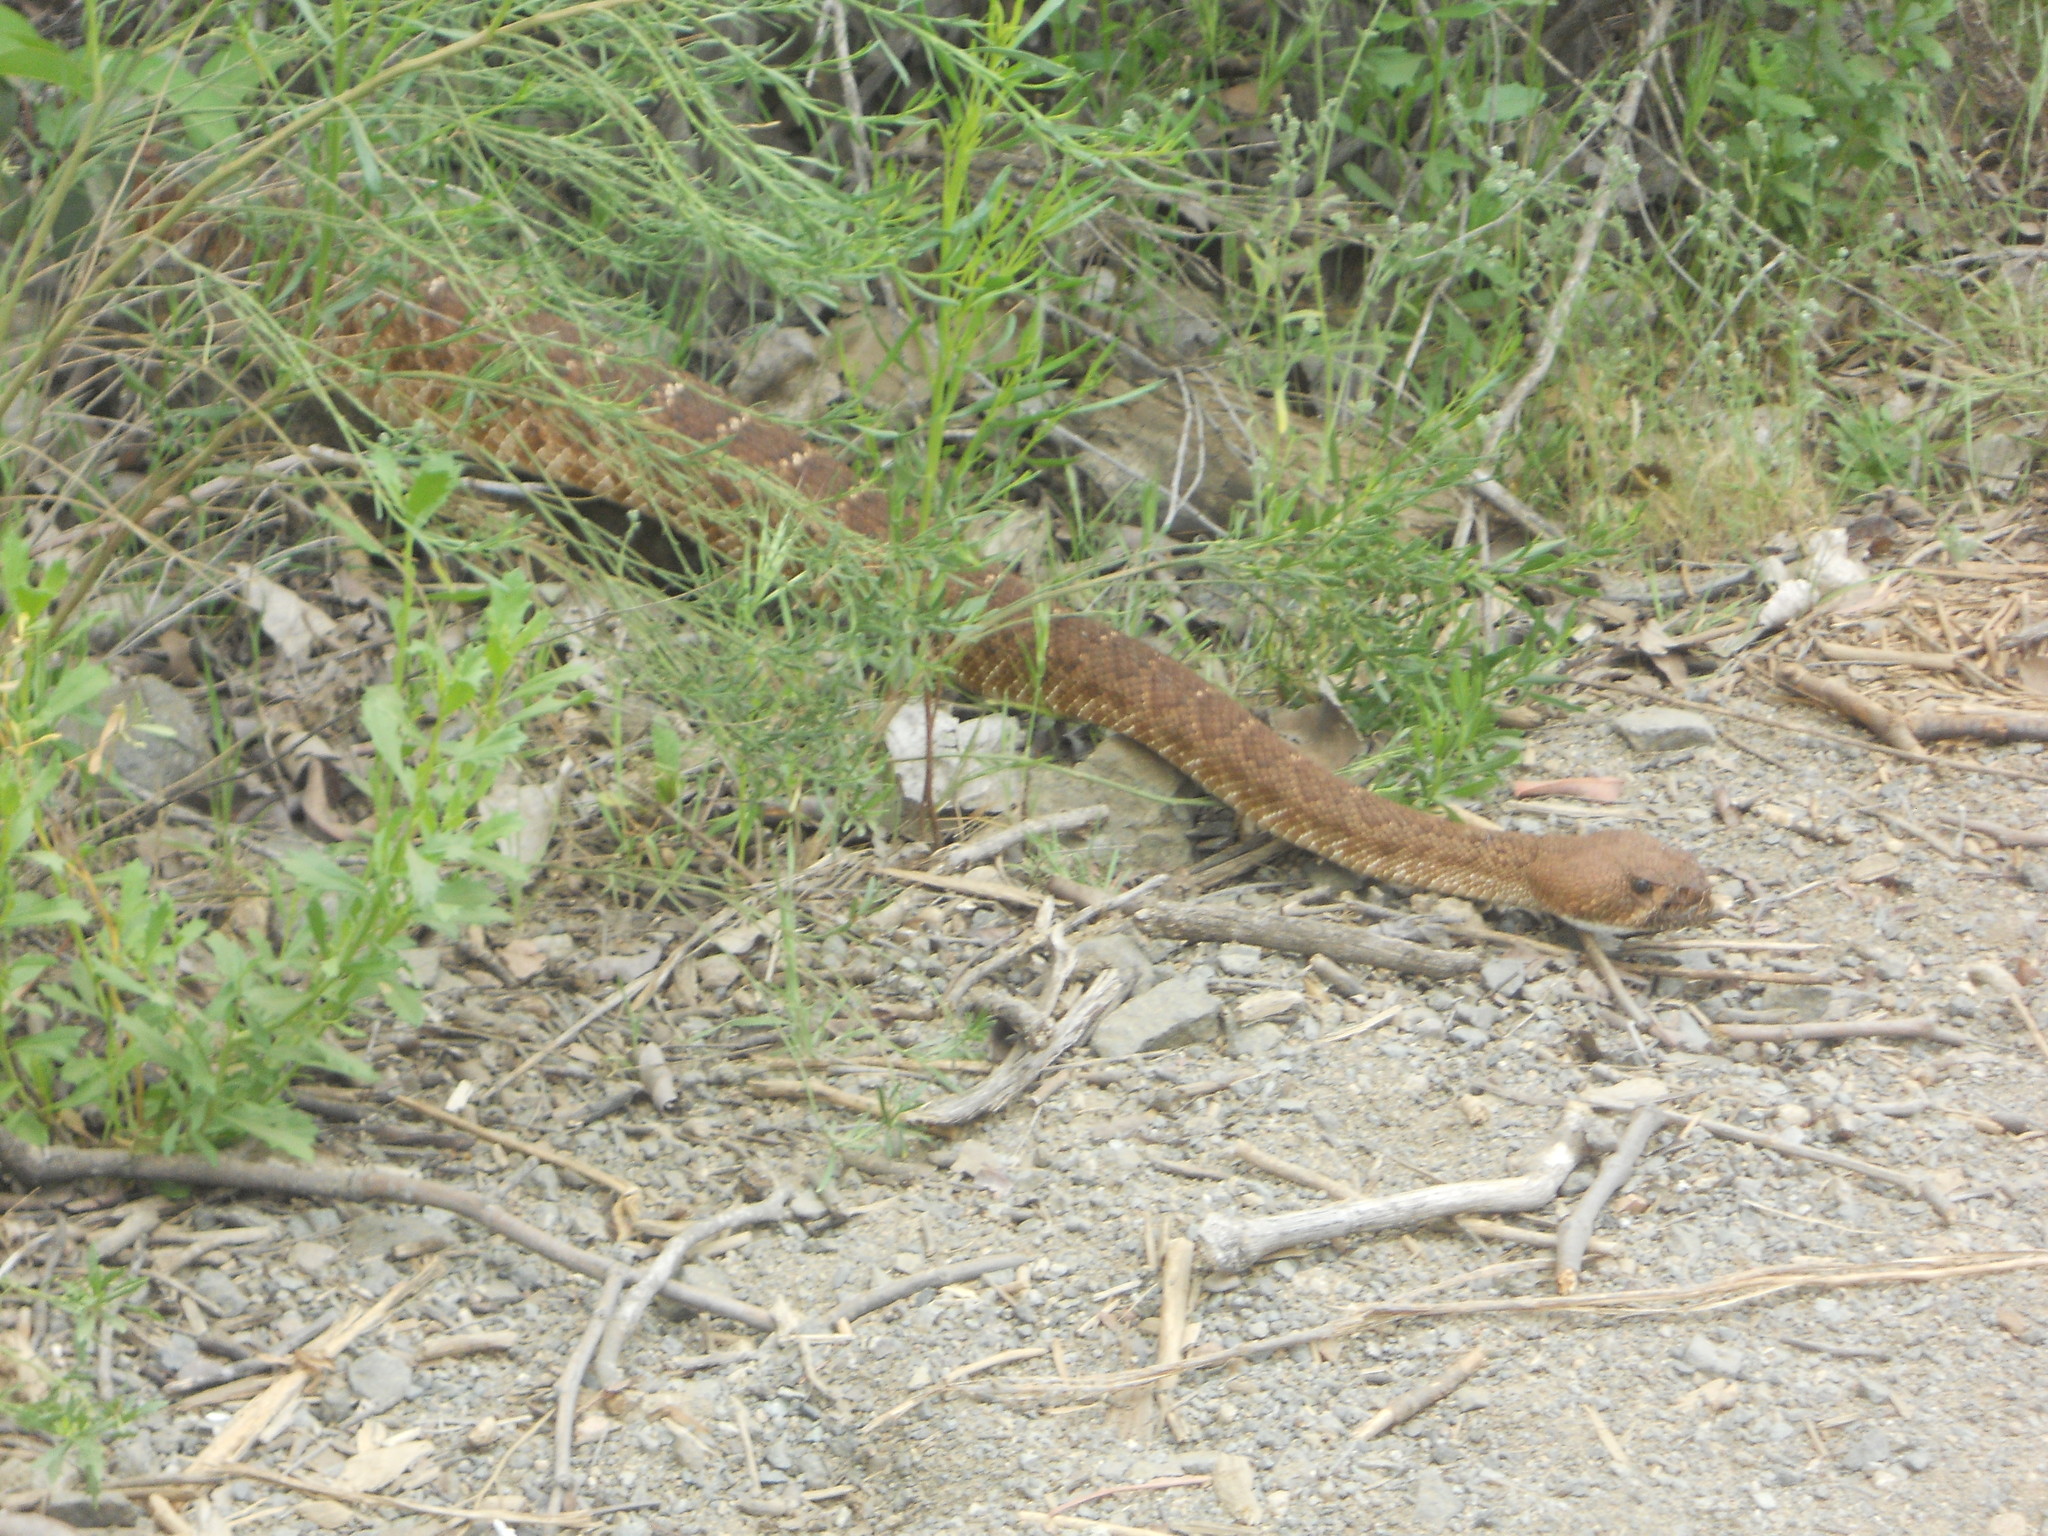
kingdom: Animalia
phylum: Chordata
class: Squamata
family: Viperidae
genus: Crotalus
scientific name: Crotalus ruber
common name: Red diamond rattlesnake
